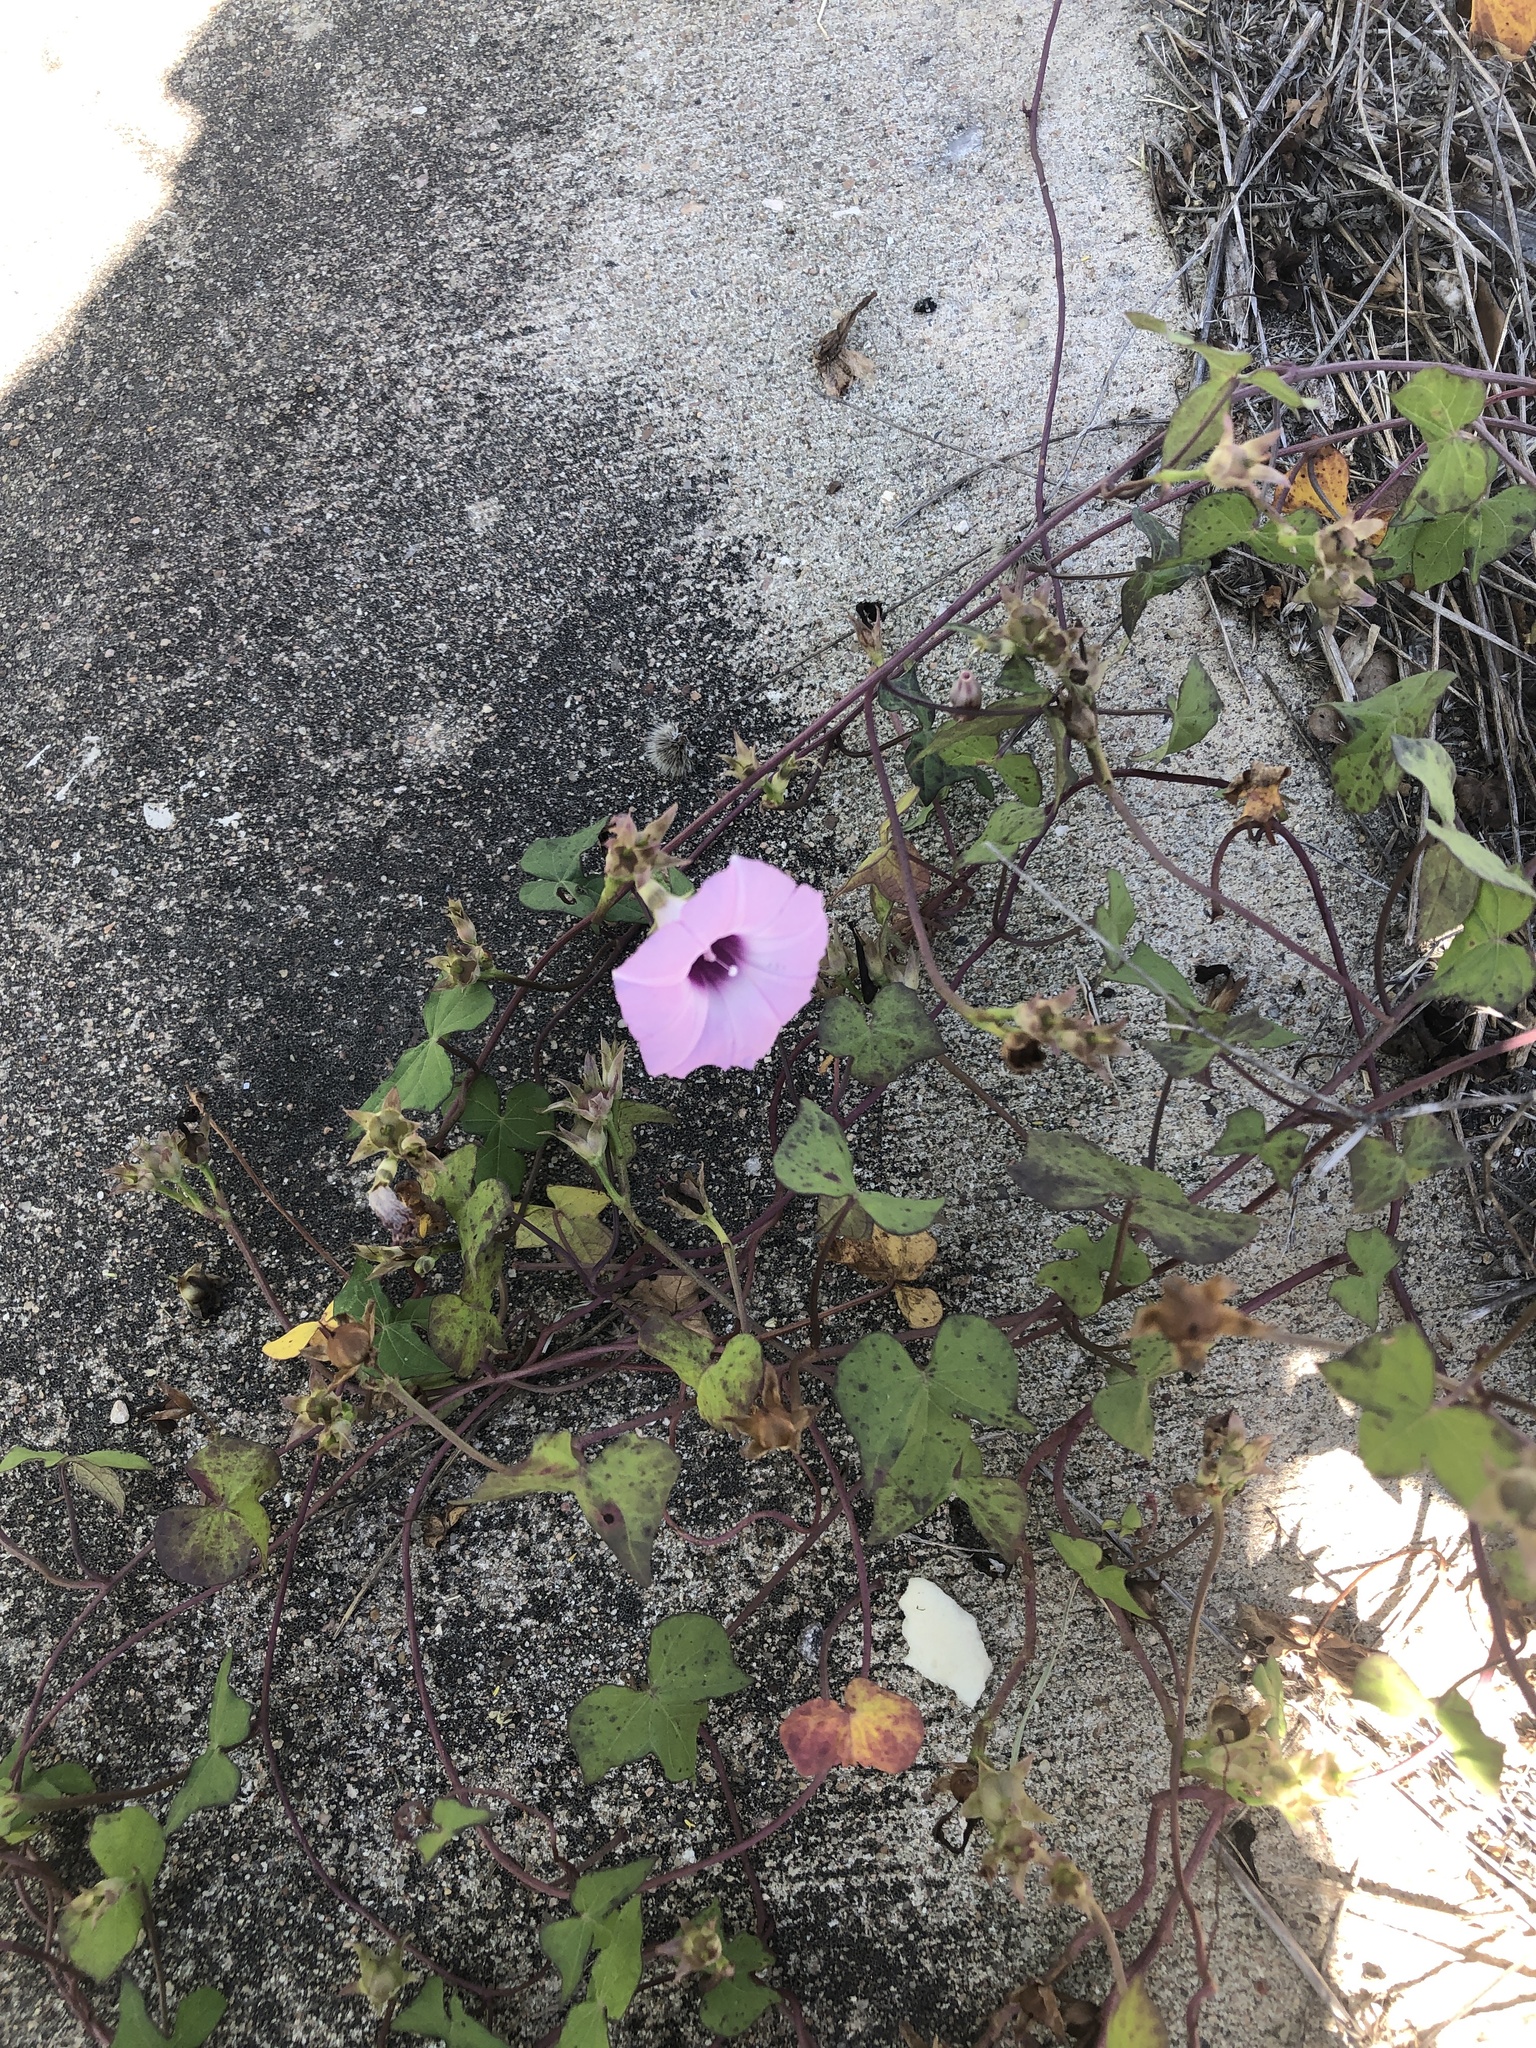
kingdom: Plantae
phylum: Tracheophyta
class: Magnoliopsida
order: Solanales
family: Convolvulaceae
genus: Ipomoea
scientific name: Ipomoea cordatotriloba
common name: Cotton morning glory
